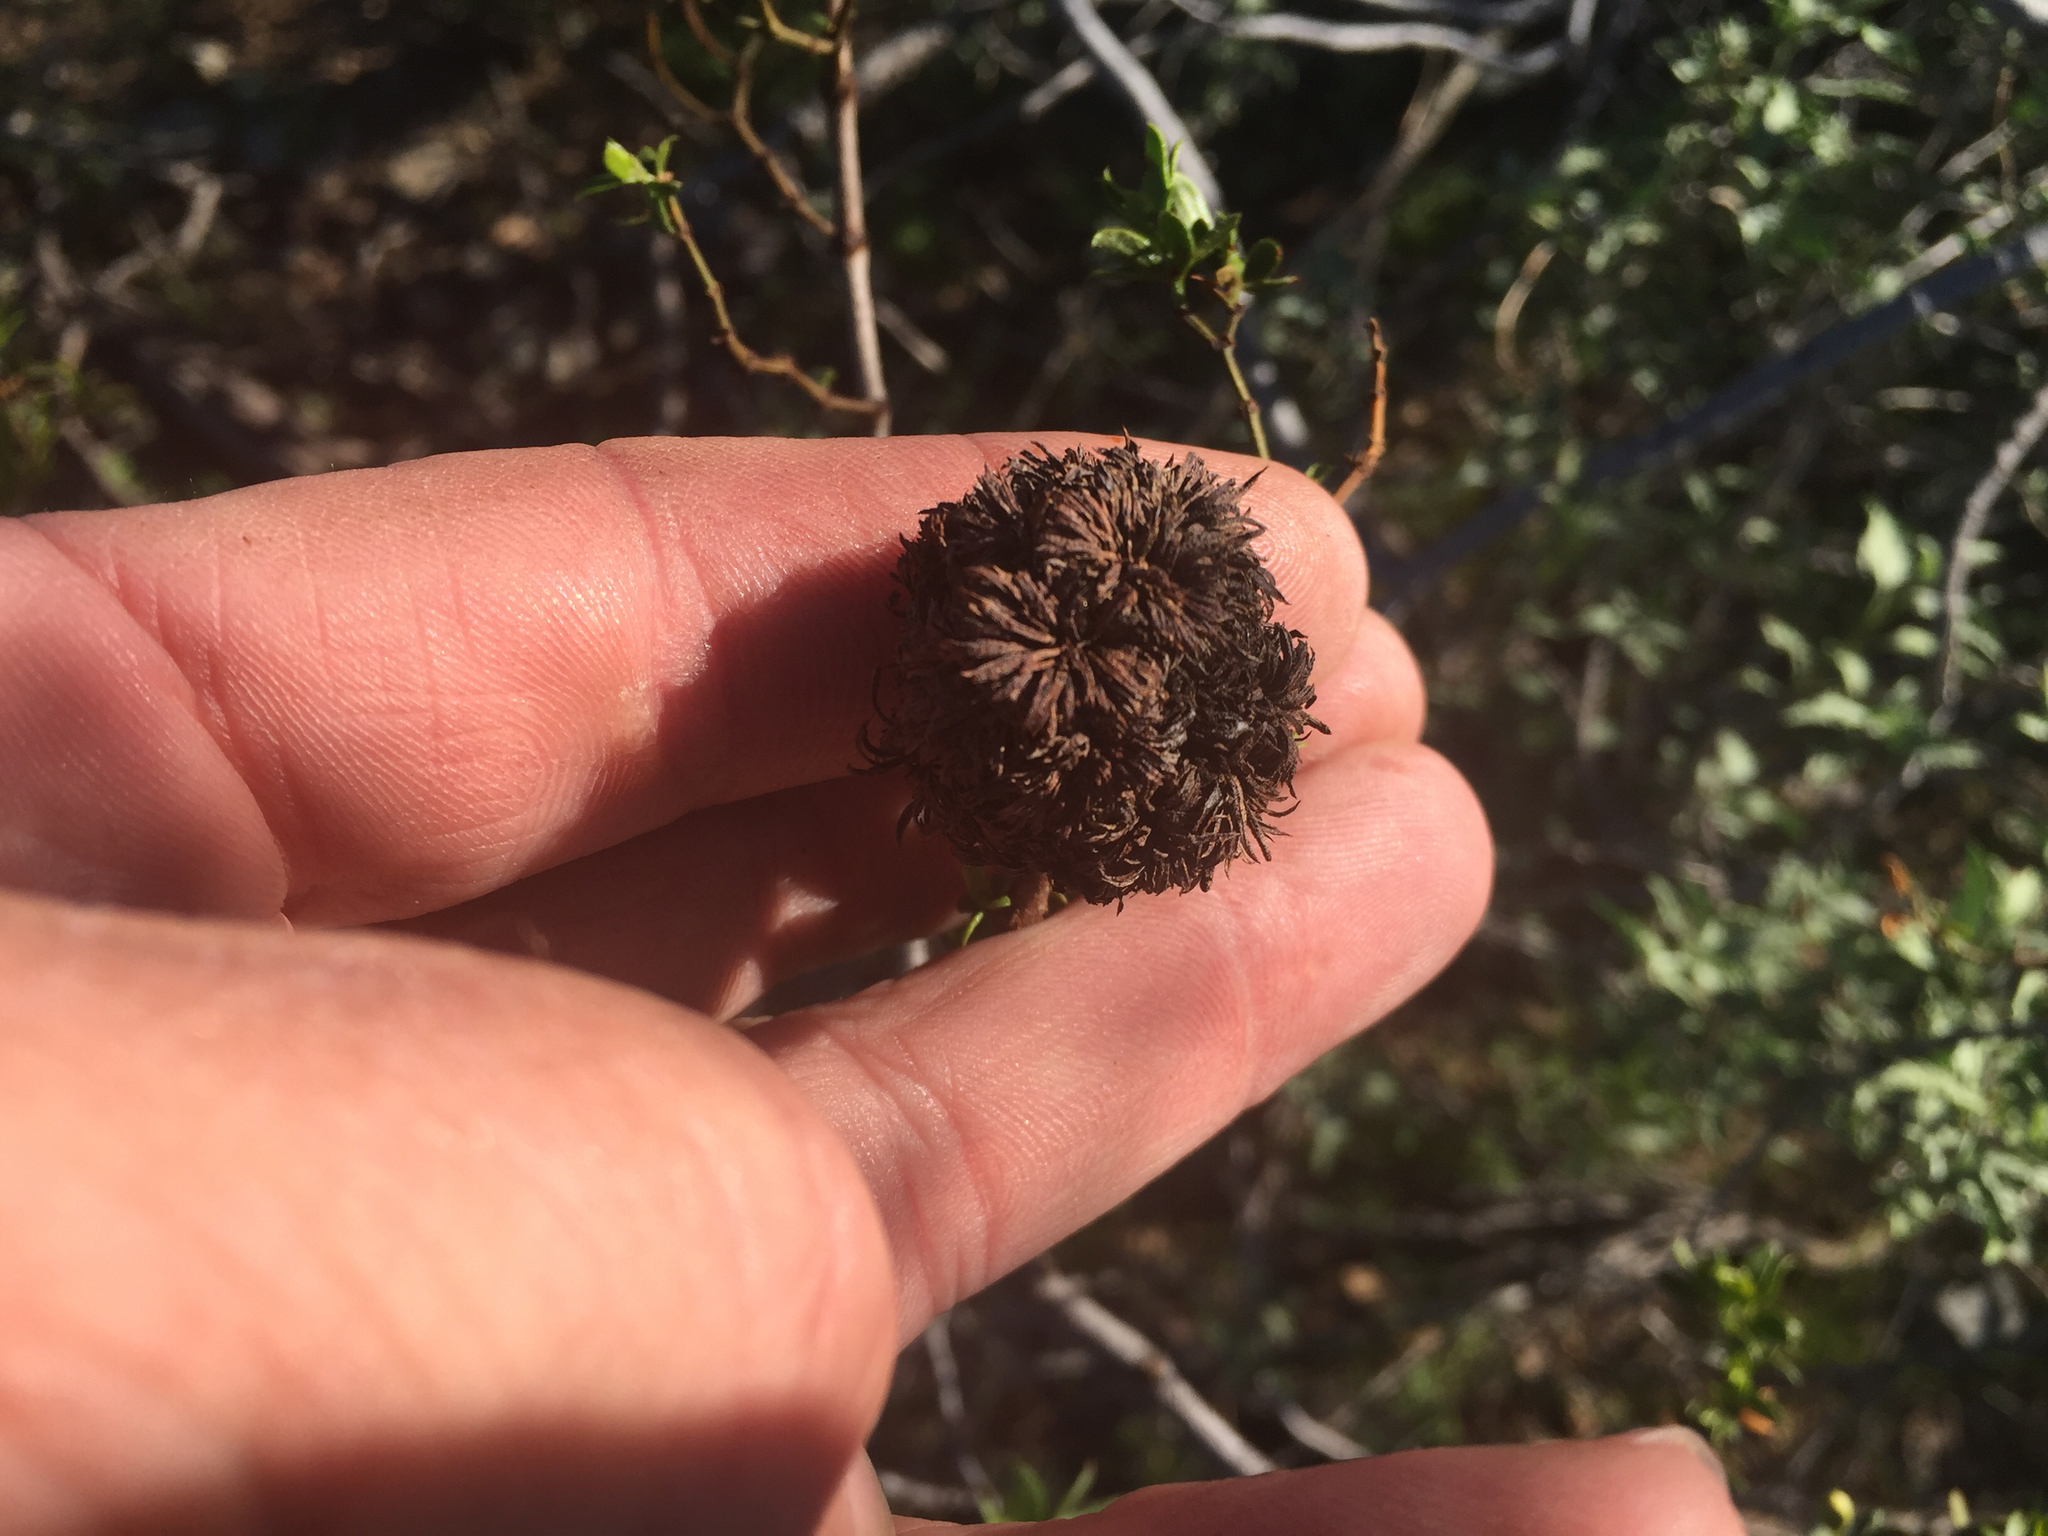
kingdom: Animalia
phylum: Arthropoda
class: Insecta
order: Diptera
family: Cecidomyiidae
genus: Asphondylia
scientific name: Asphondylia auripila
